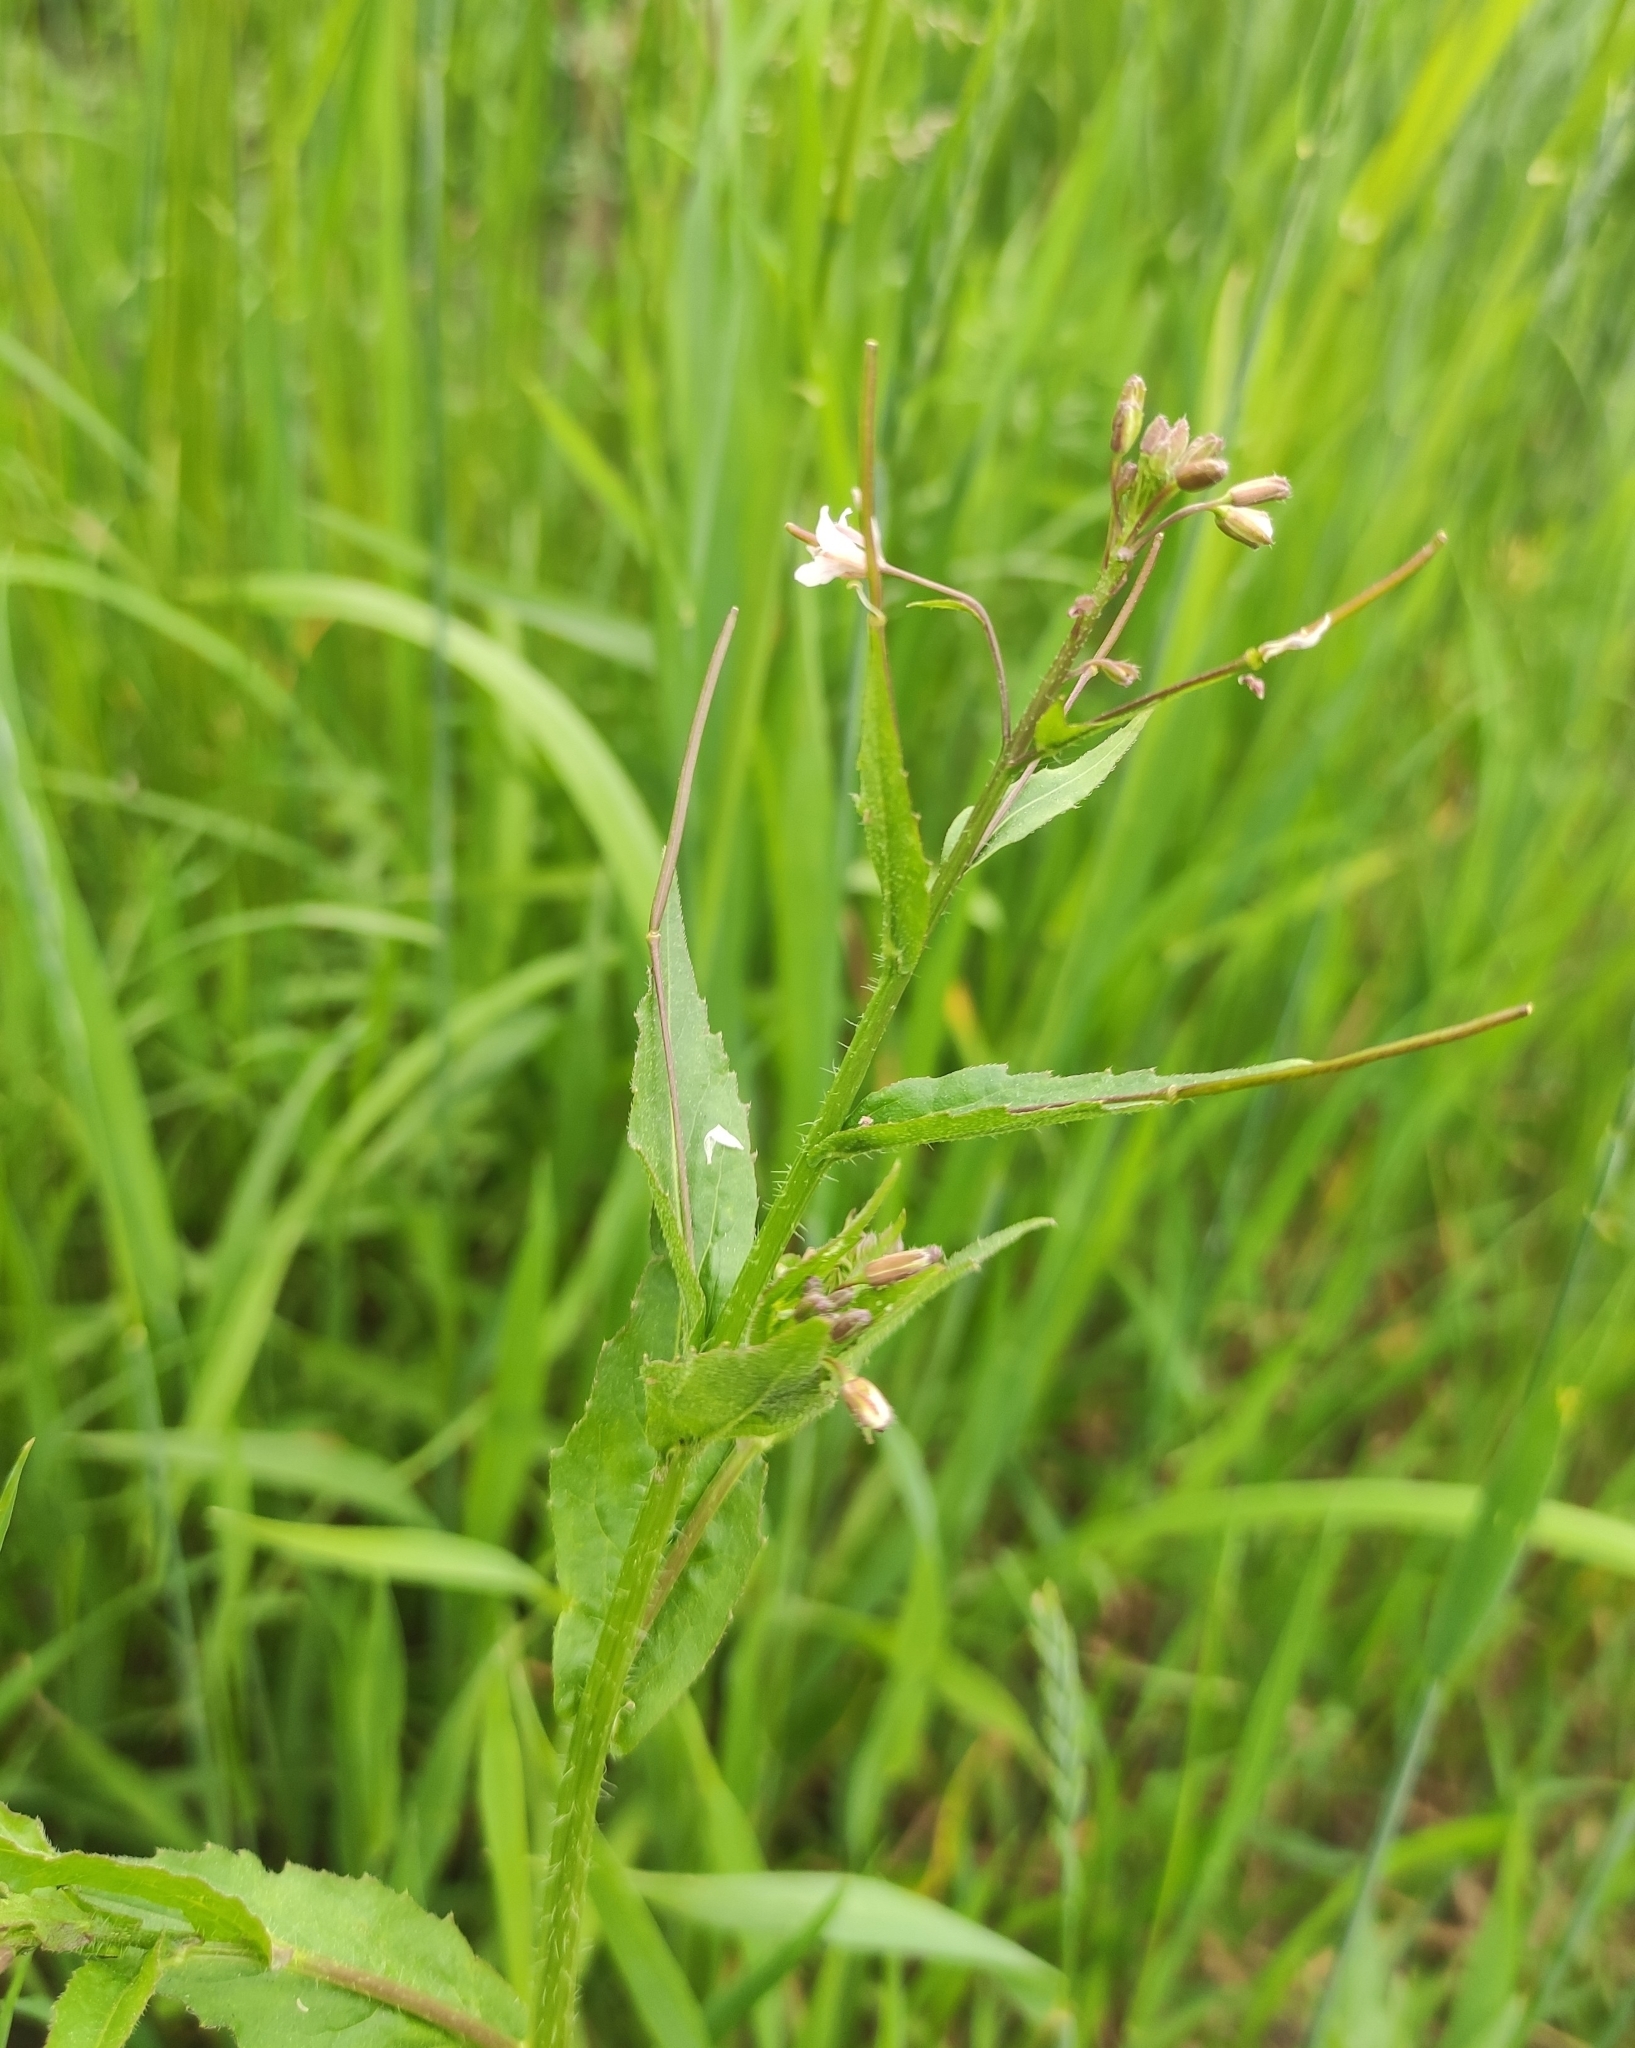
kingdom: Plantae
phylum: Tracheophyta
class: Magnoliopsida
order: Myrtales
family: Onagraceae
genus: Epilobium
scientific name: Epilobium pseudorubescens
